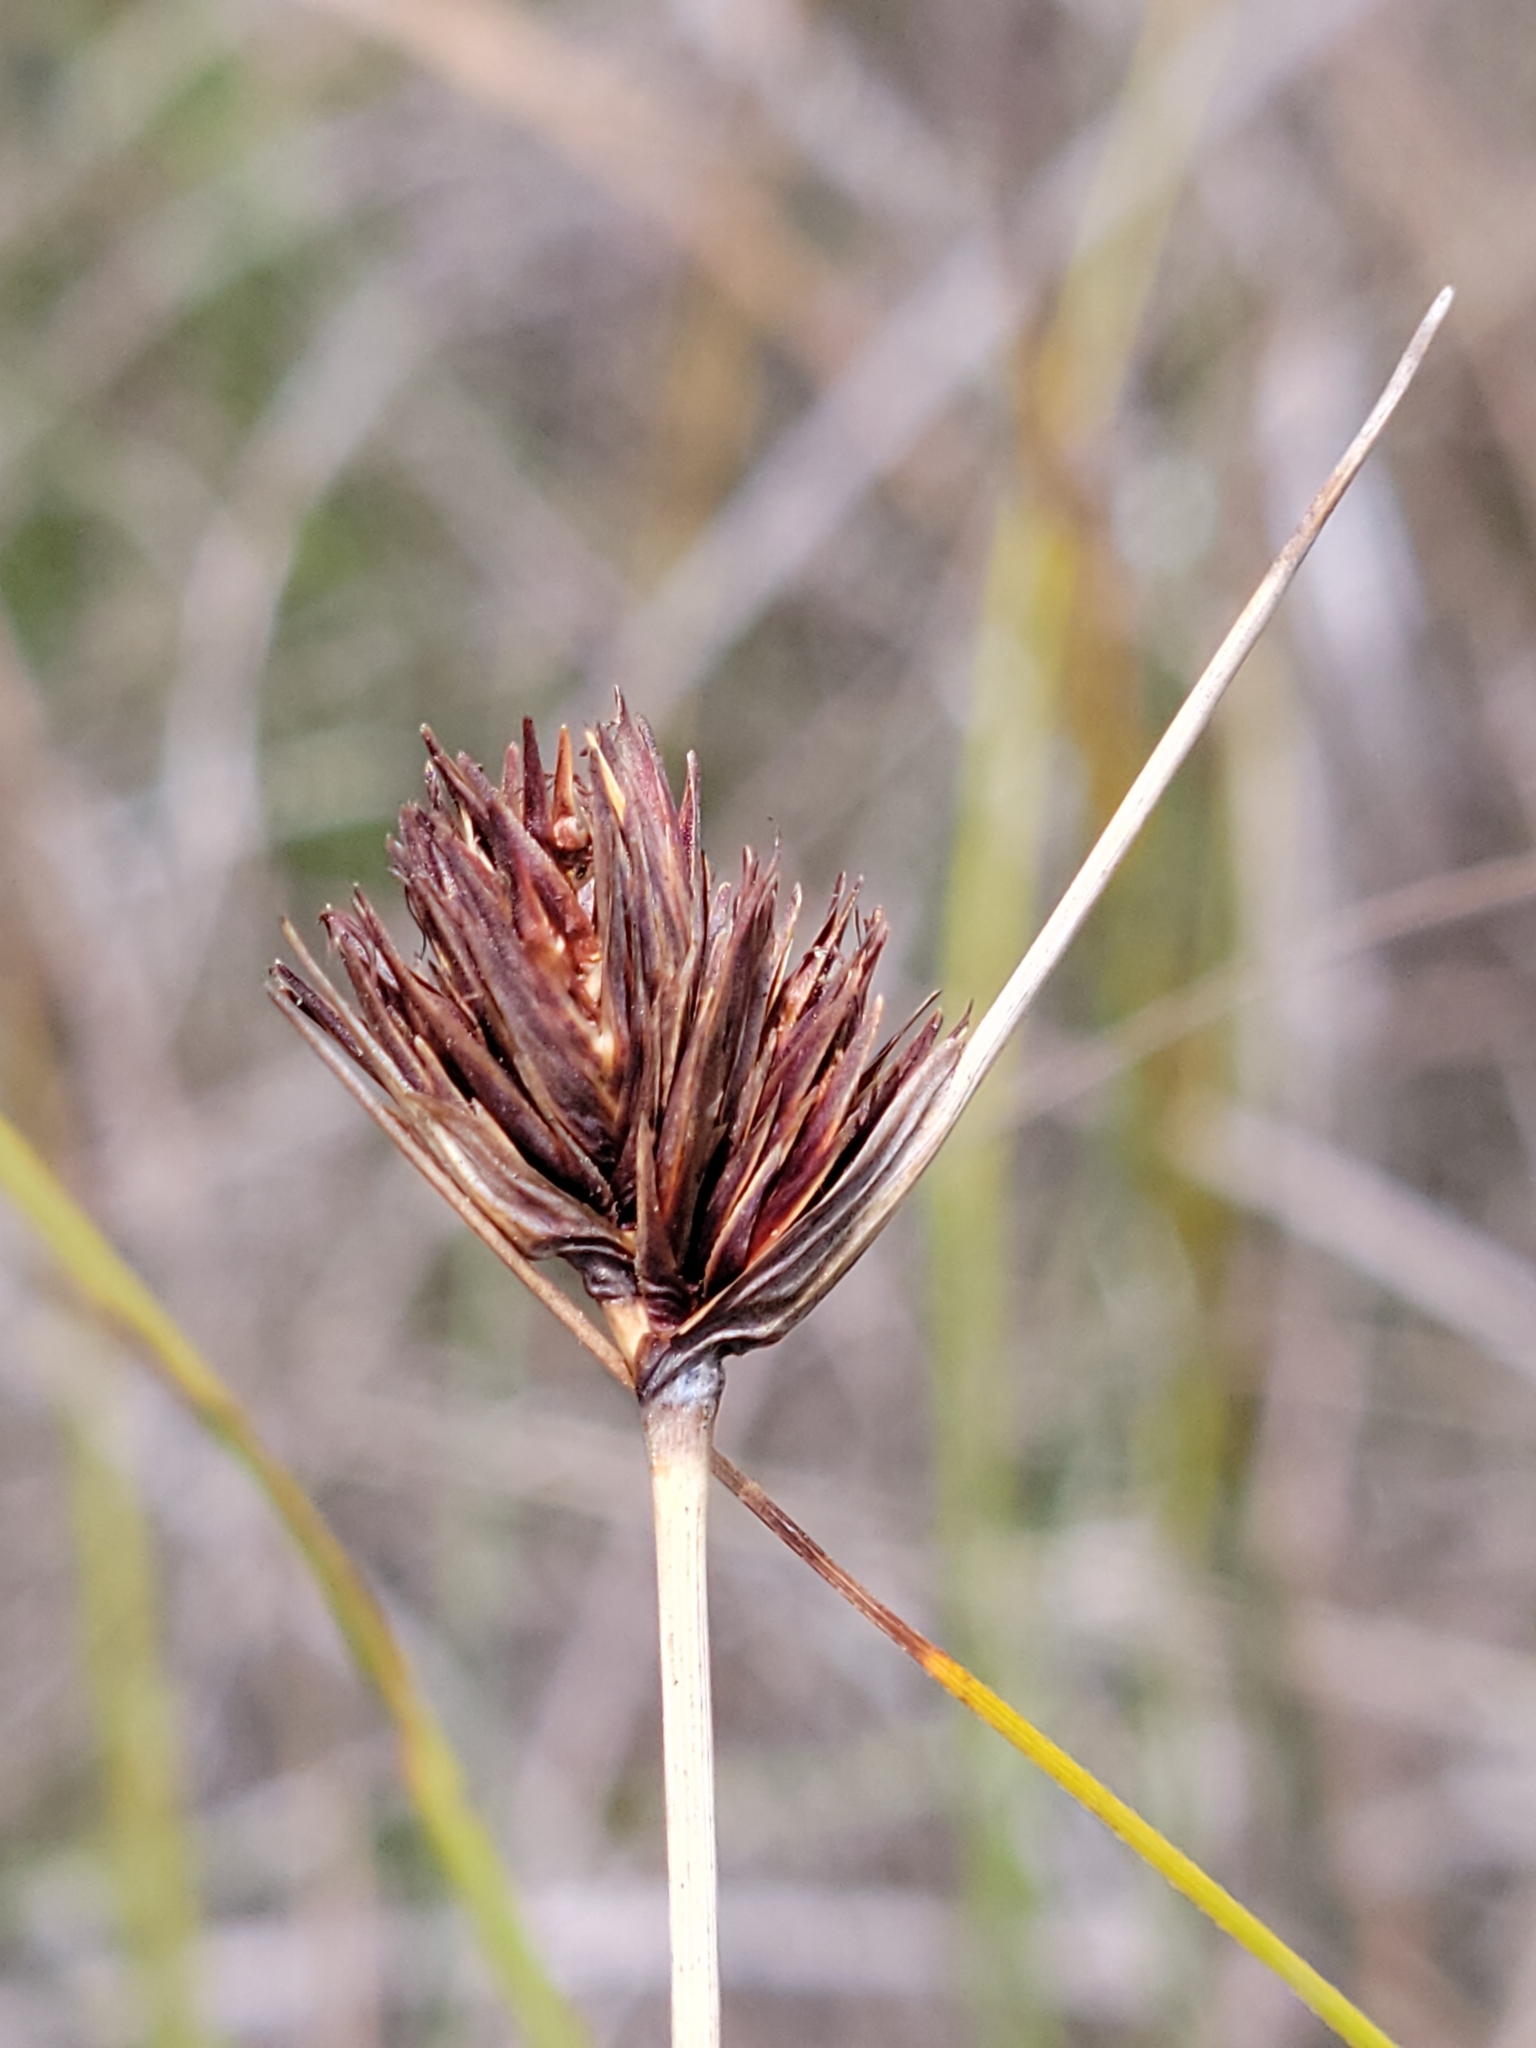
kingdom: Plantae
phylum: Tracheophyta
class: Liliopsida
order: Poales
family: Cyperaceae
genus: Schoenus
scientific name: Schoenus nigricans
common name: Black bog-rush
